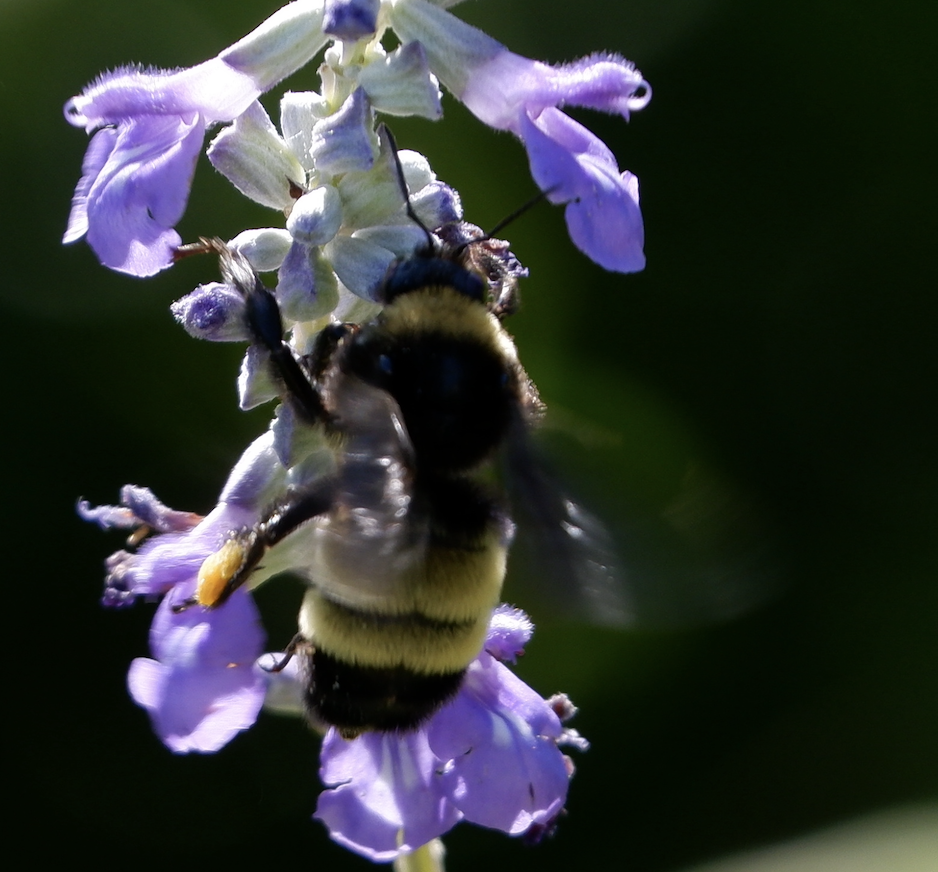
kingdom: Animalia
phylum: Arthropoda
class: Insecta
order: Hymenoptera
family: Apidae
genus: Bombus
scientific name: Bombus pensylvanicus
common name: Bumble bee
